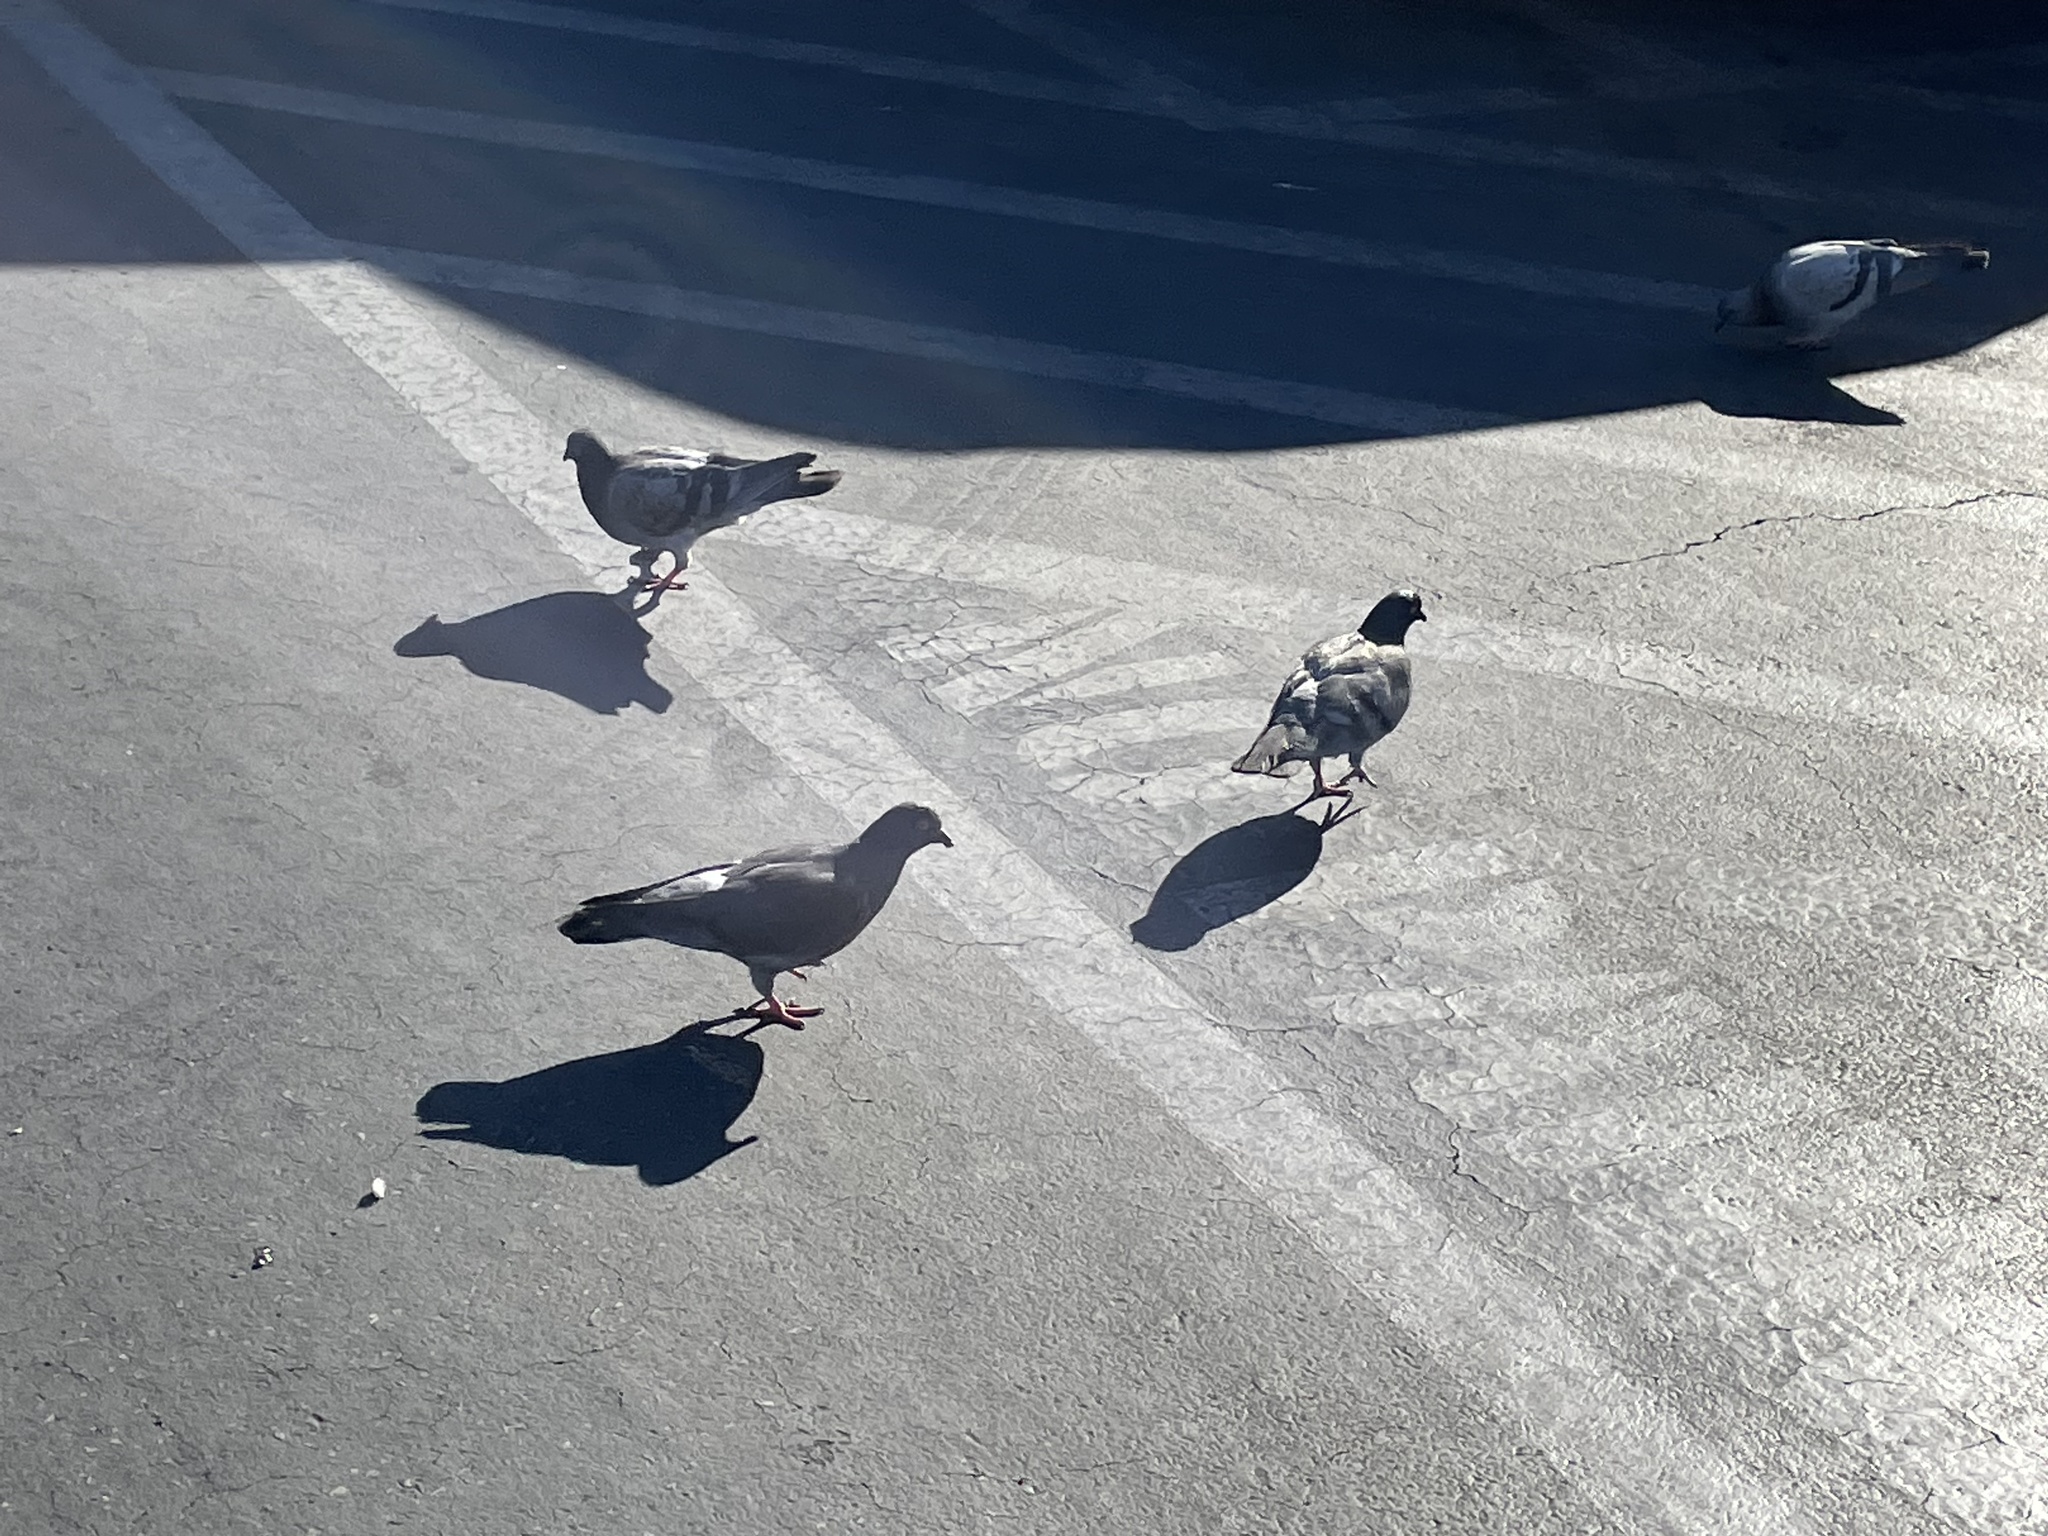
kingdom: Animalia
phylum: Chordata
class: Aves
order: Columbiformes
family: Columbidae
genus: Columba
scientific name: Columba livia
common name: Rock pigeon
